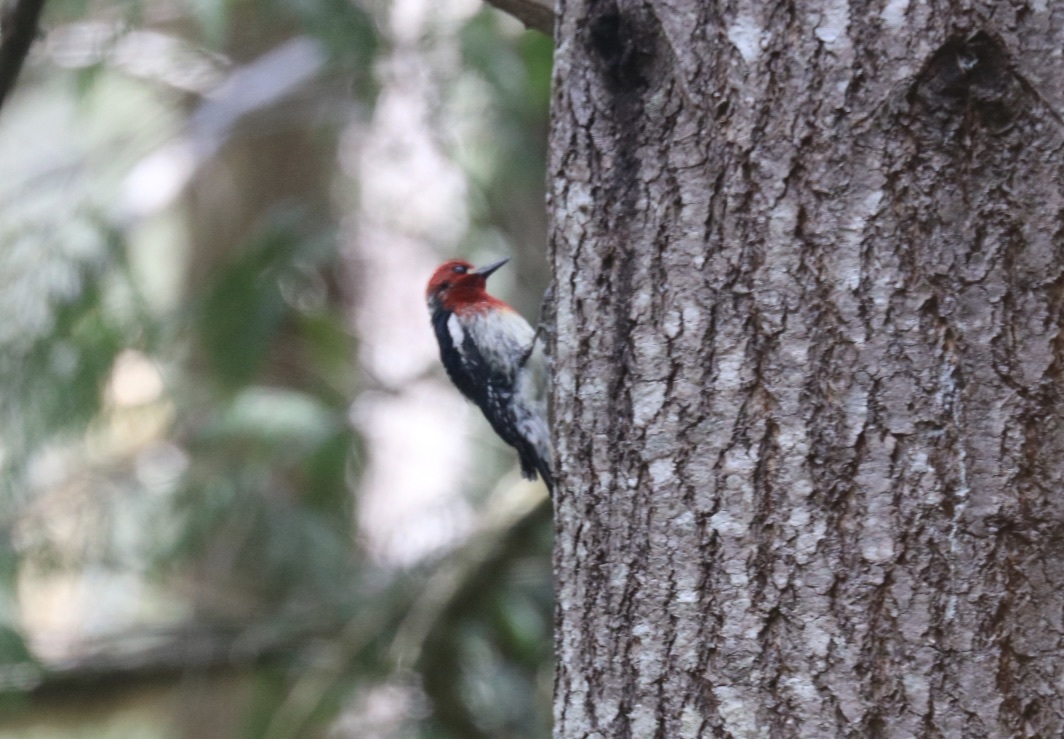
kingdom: Animalia
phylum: Chordata
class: Aves
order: Piciformes
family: Picidae
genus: Sphyrapicus
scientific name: Sphyrapicus ruber
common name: Red-breasted sapsucker
